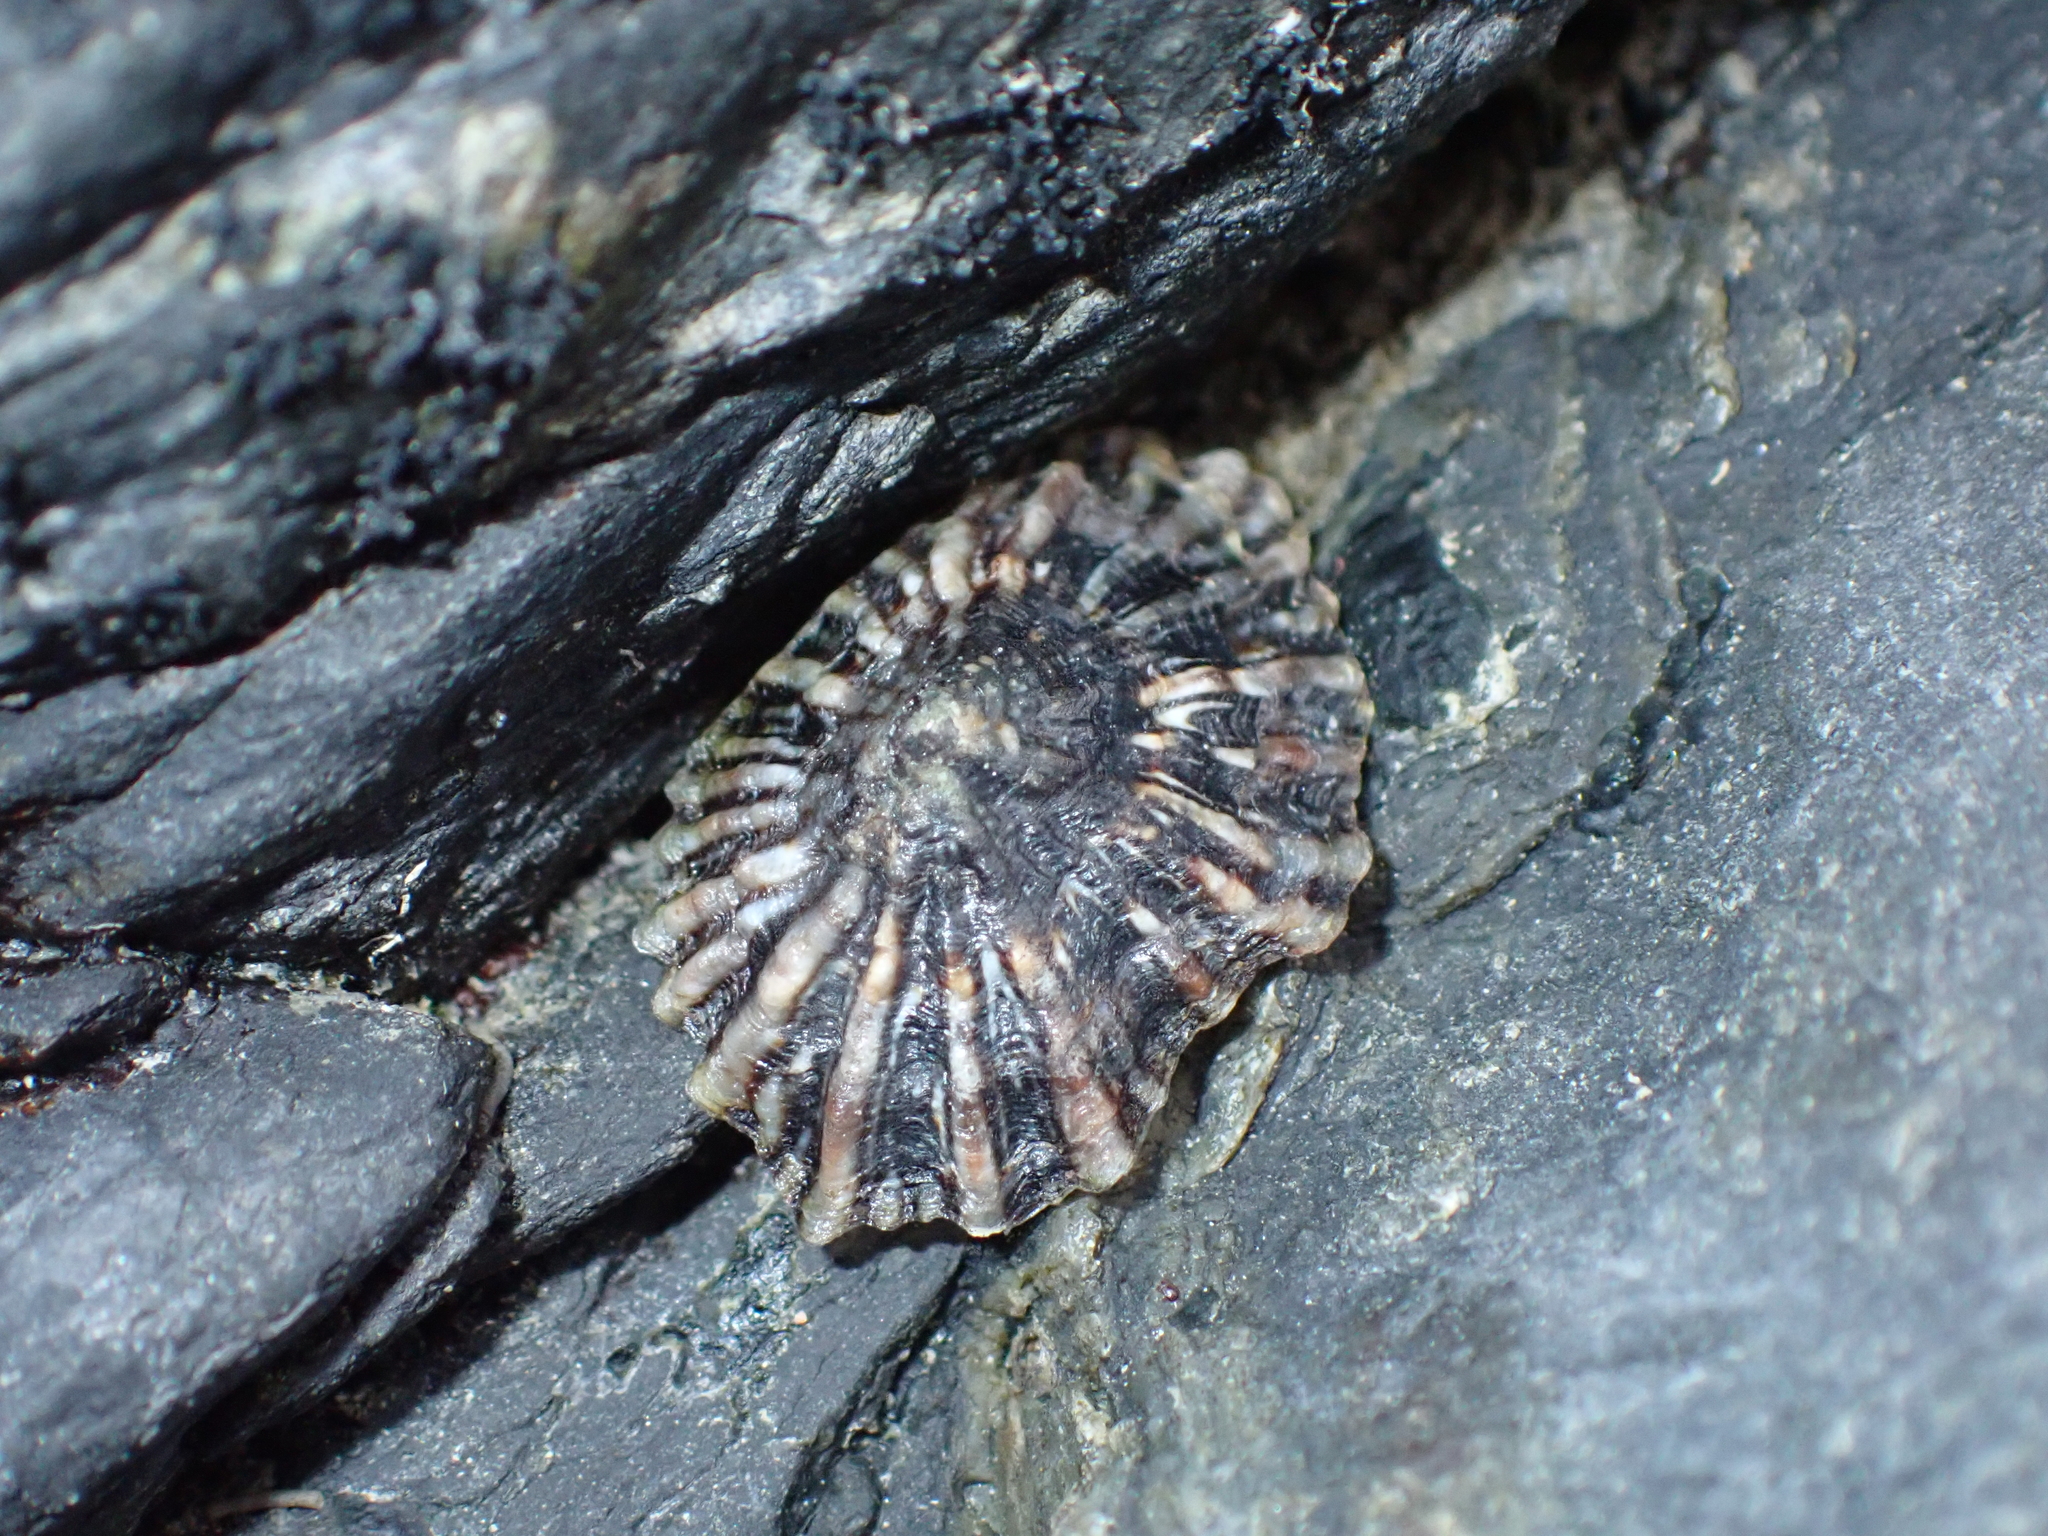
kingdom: Animalia
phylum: Mollusca
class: Gastropoda
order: Siphonariida
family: Siphonariidae
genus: Siphonaria
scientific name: Siphonaria australis
